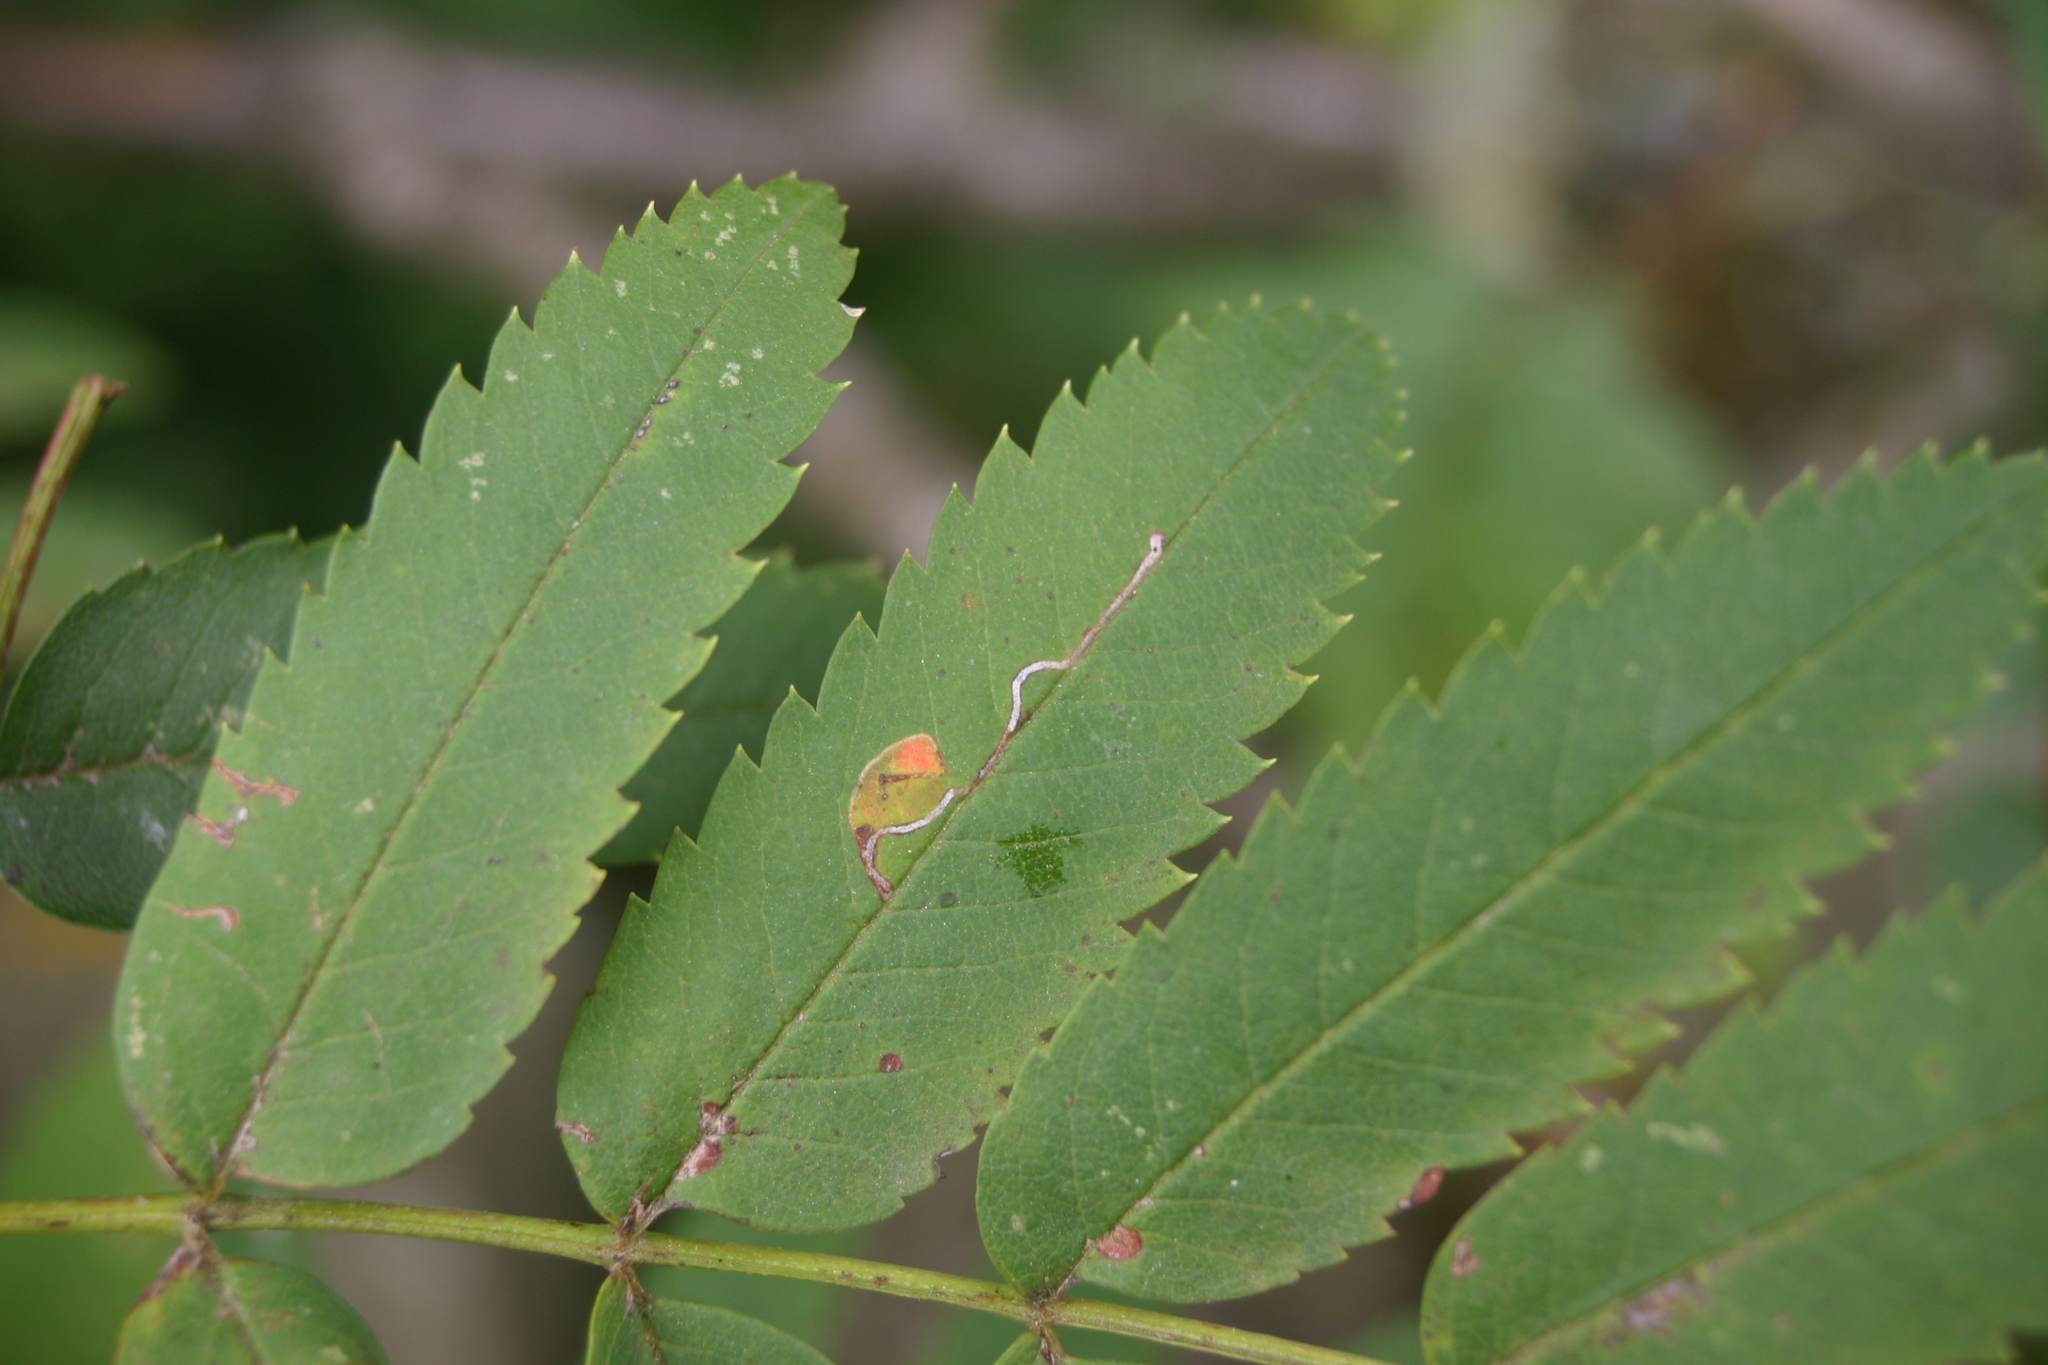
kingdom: Animalia
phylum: Arthropoda
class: Insecta
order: Lepidoptera
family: Lyonetiidae
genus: Lyonetia
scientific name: Lyonetia clerkella
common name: Apple leaf miner
